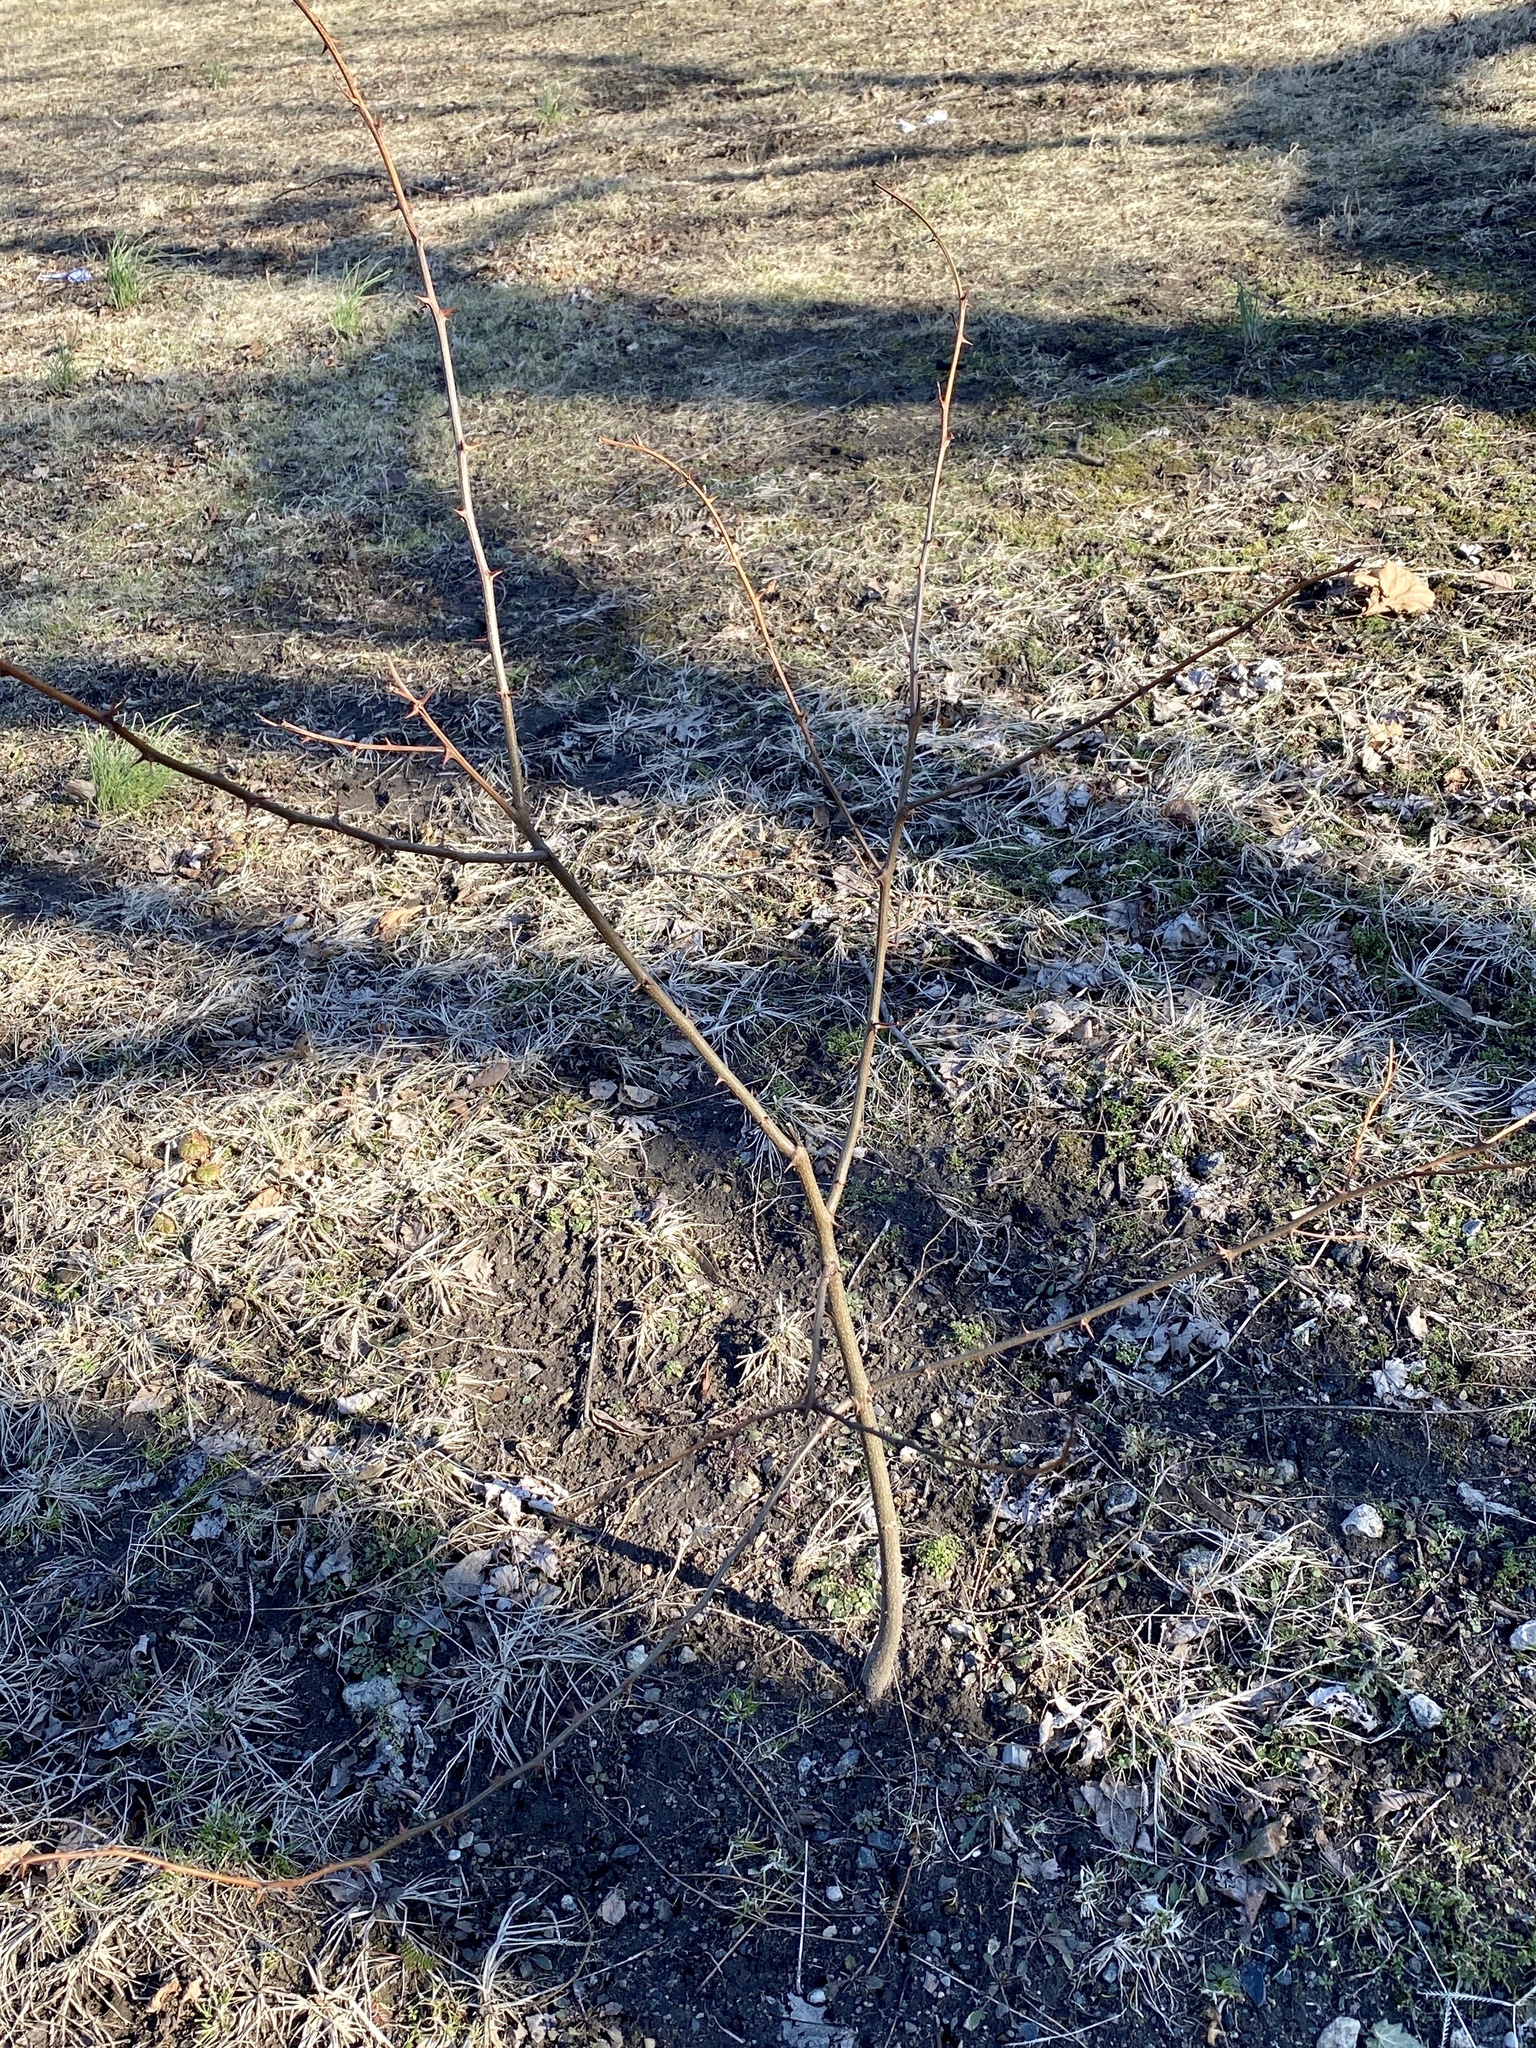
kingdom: Plantae
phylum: Tracheophyta
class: Magnoliopsida
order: Fabales
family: Fabaceae
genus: Robinia
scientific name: Robinia pseudoacacia
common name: Black locust
